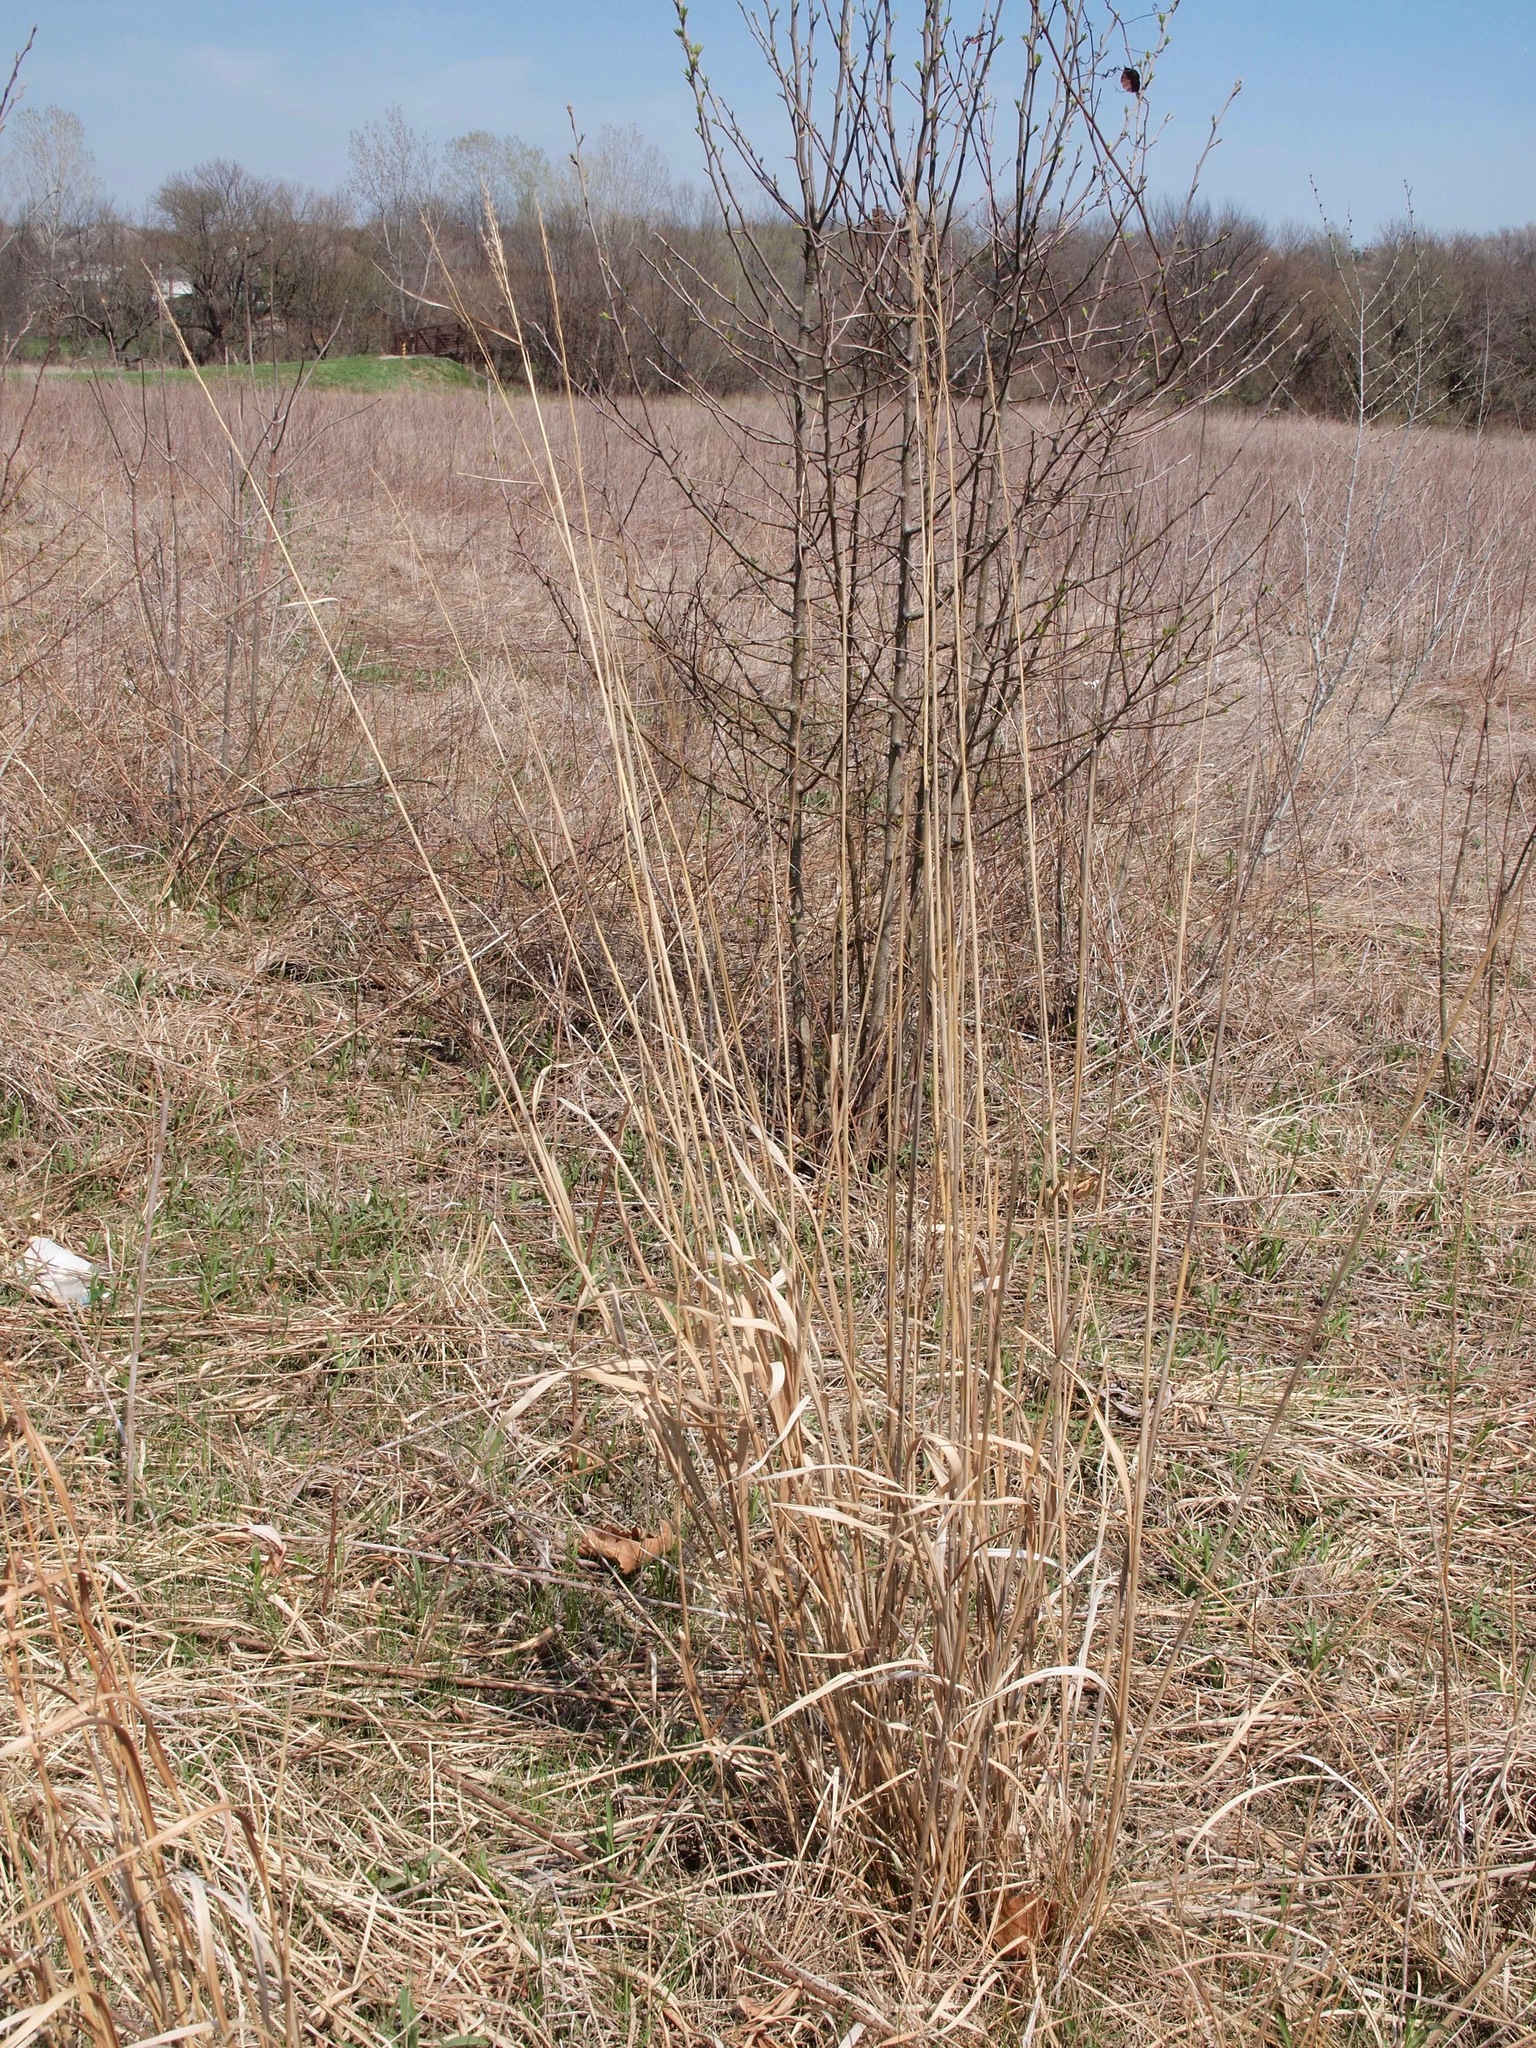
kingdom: Plantae
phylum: Tracheophyta
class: Liliopsida
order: Poales
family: Poaceae
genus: Sorghastrum
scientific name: Sorghastrum nutans
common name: Indian grass
